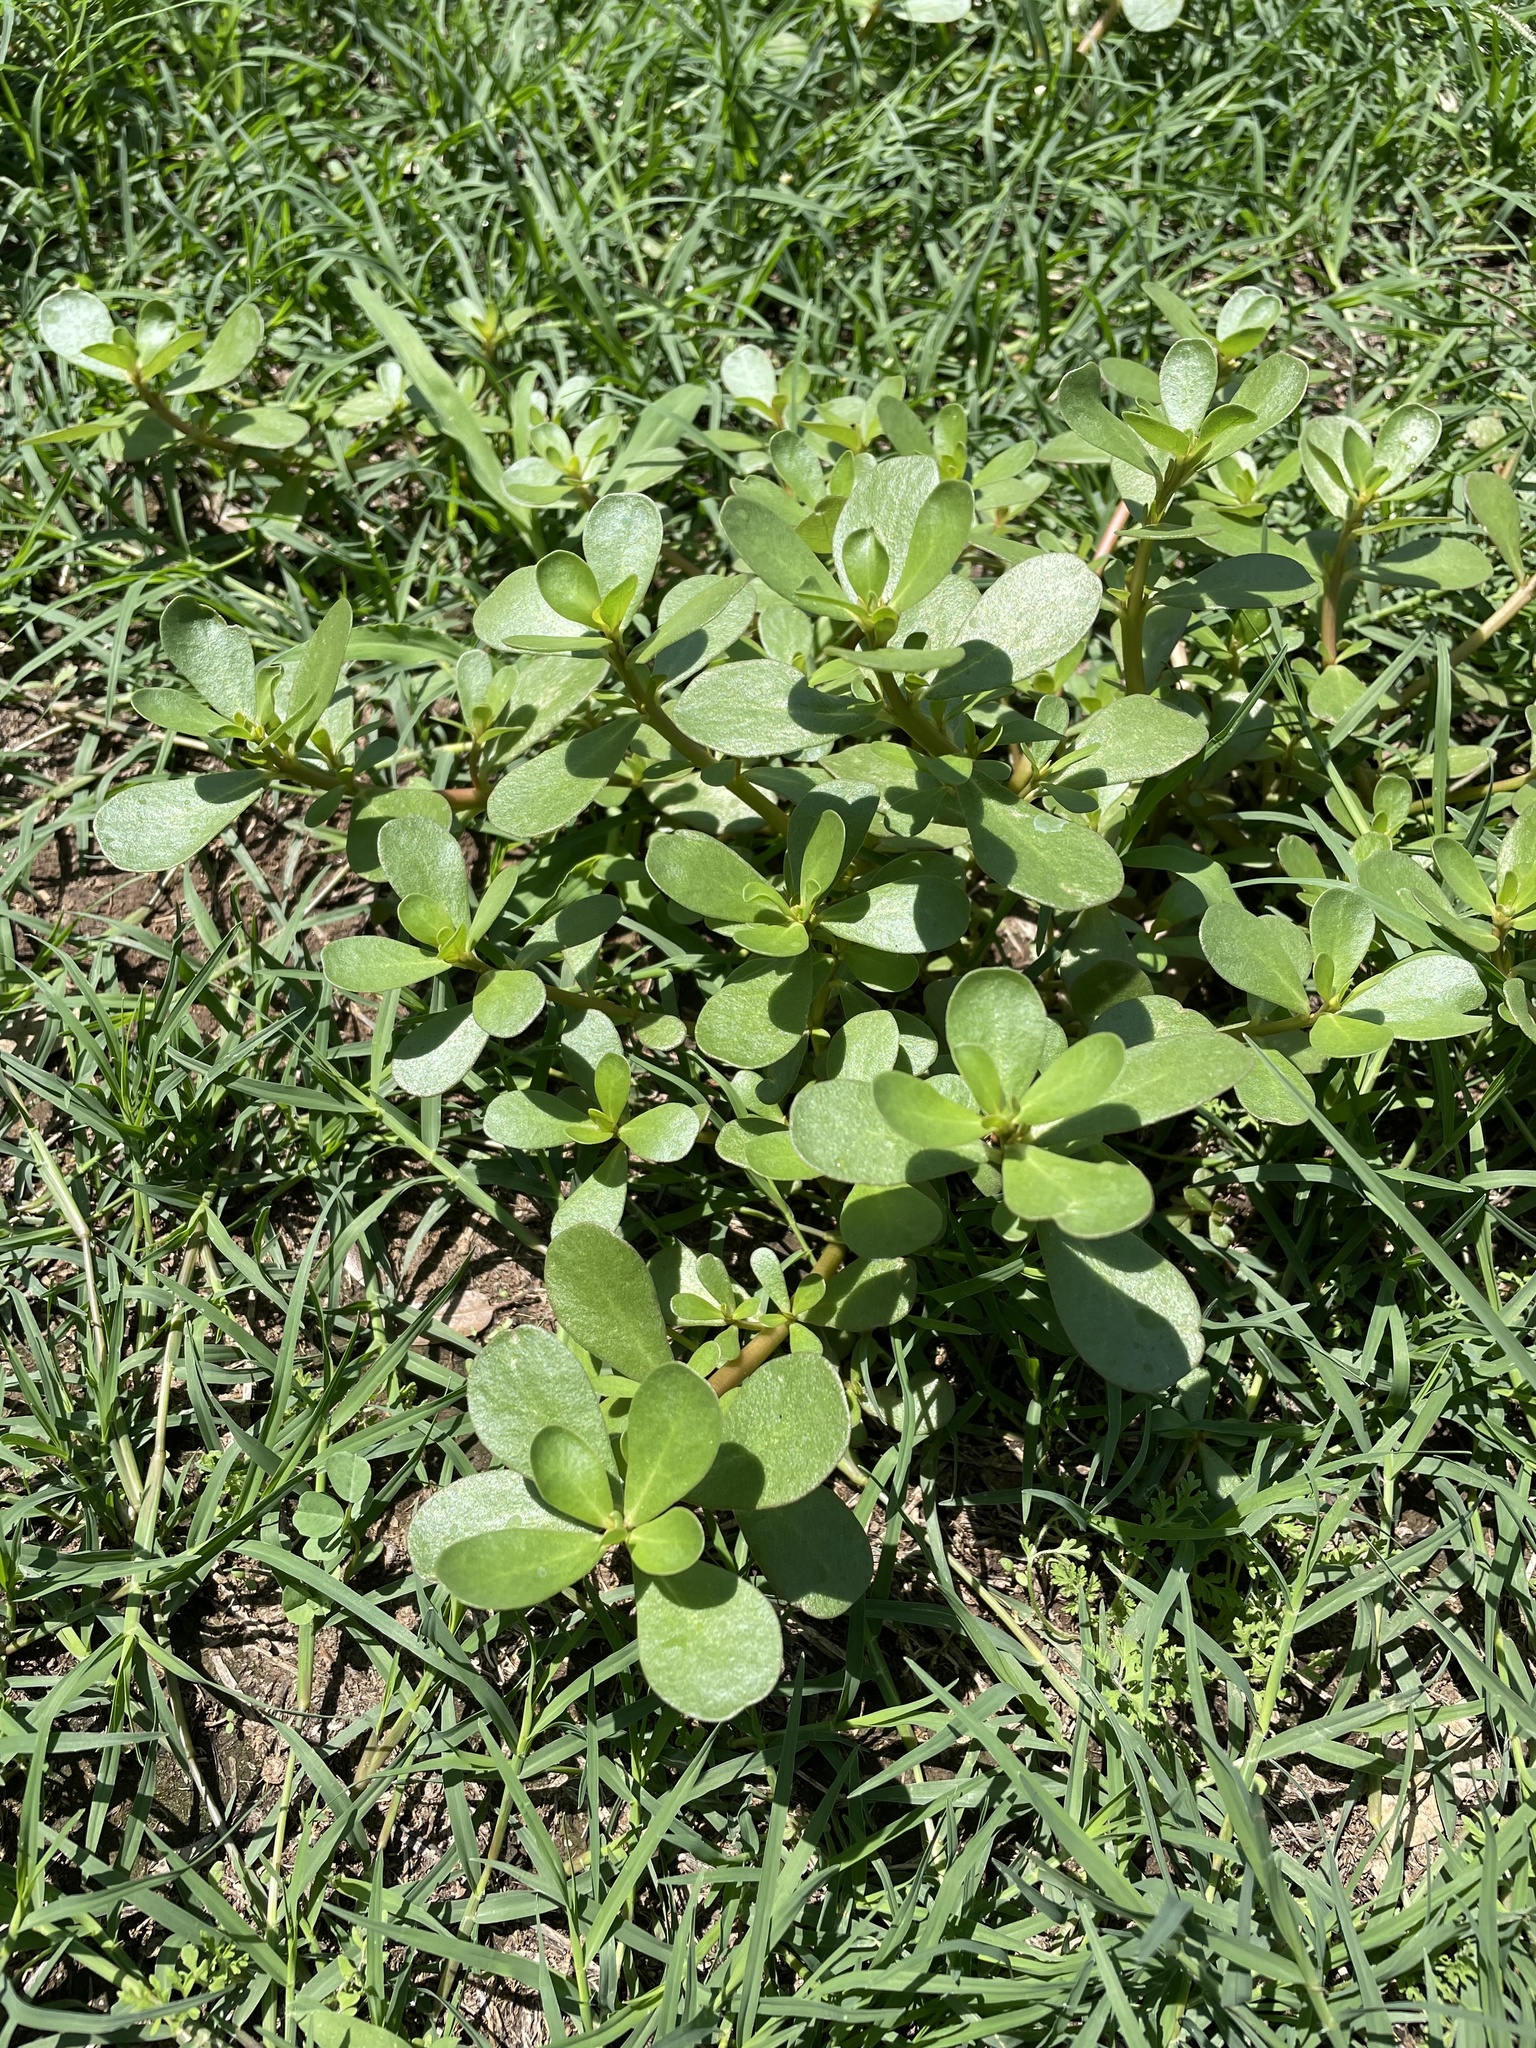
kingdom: Plantae
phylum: Tracheophyta
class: Magnoliopsida
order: Caryophyllales
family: Portulacaceae
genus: Portulaca
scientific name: Portulaca oleracea
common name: Common purslane
